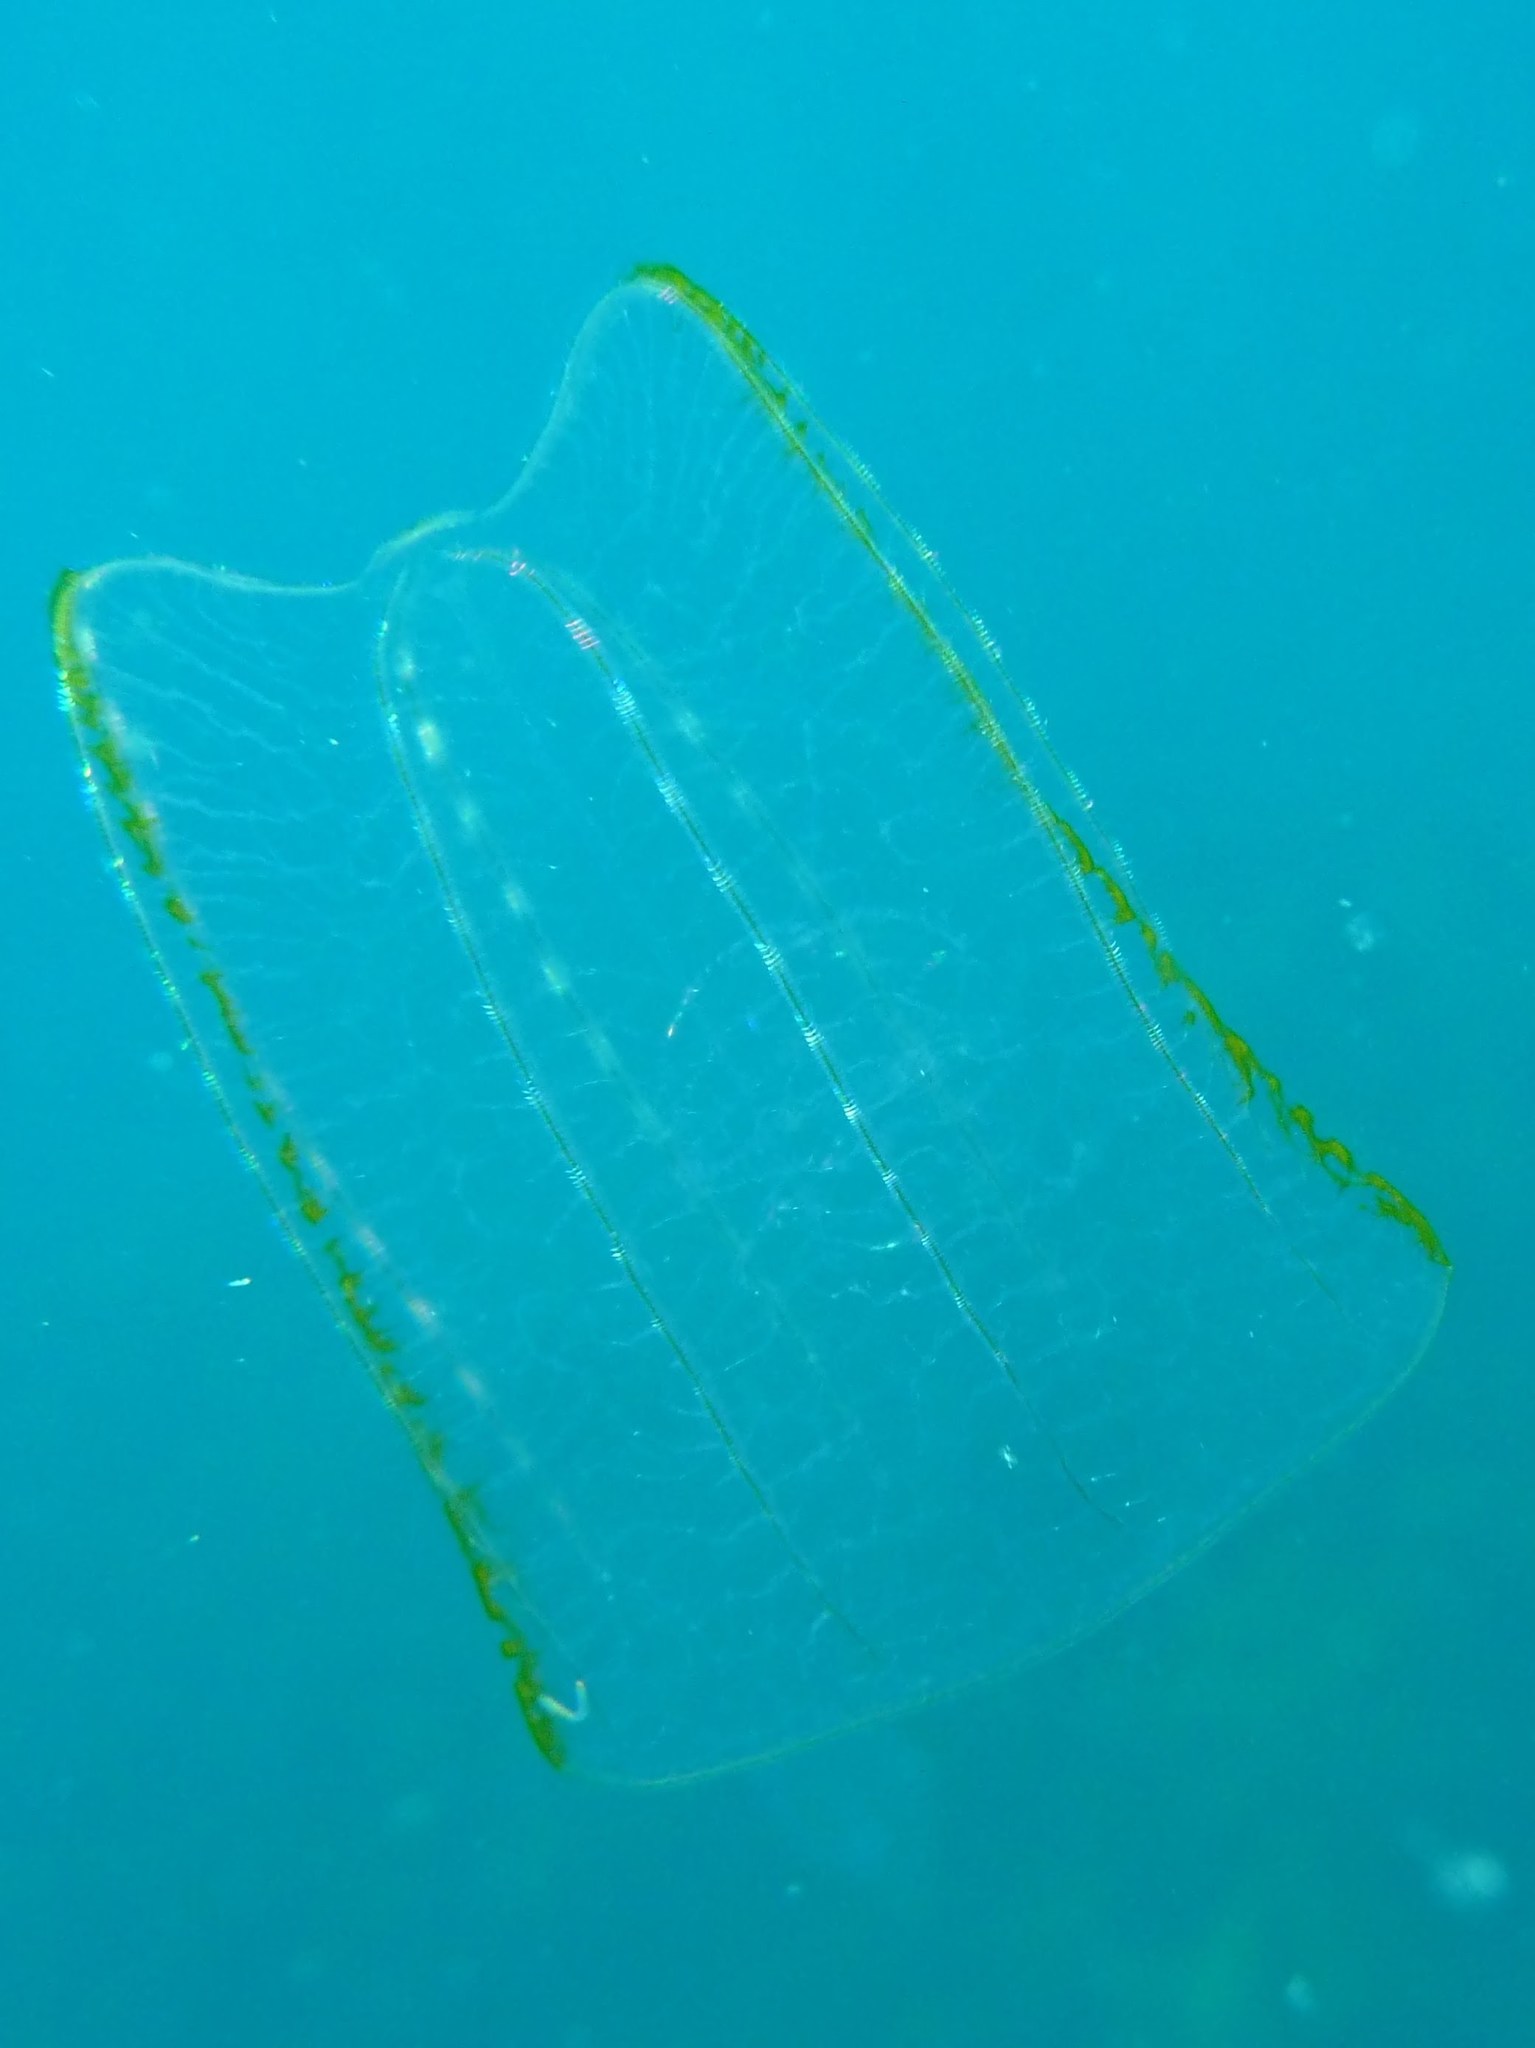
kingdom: Animalia
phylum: Ctenophora
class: Nuda
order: Beroida
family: Beroidae
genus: Neis
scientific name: Neis cordigera
